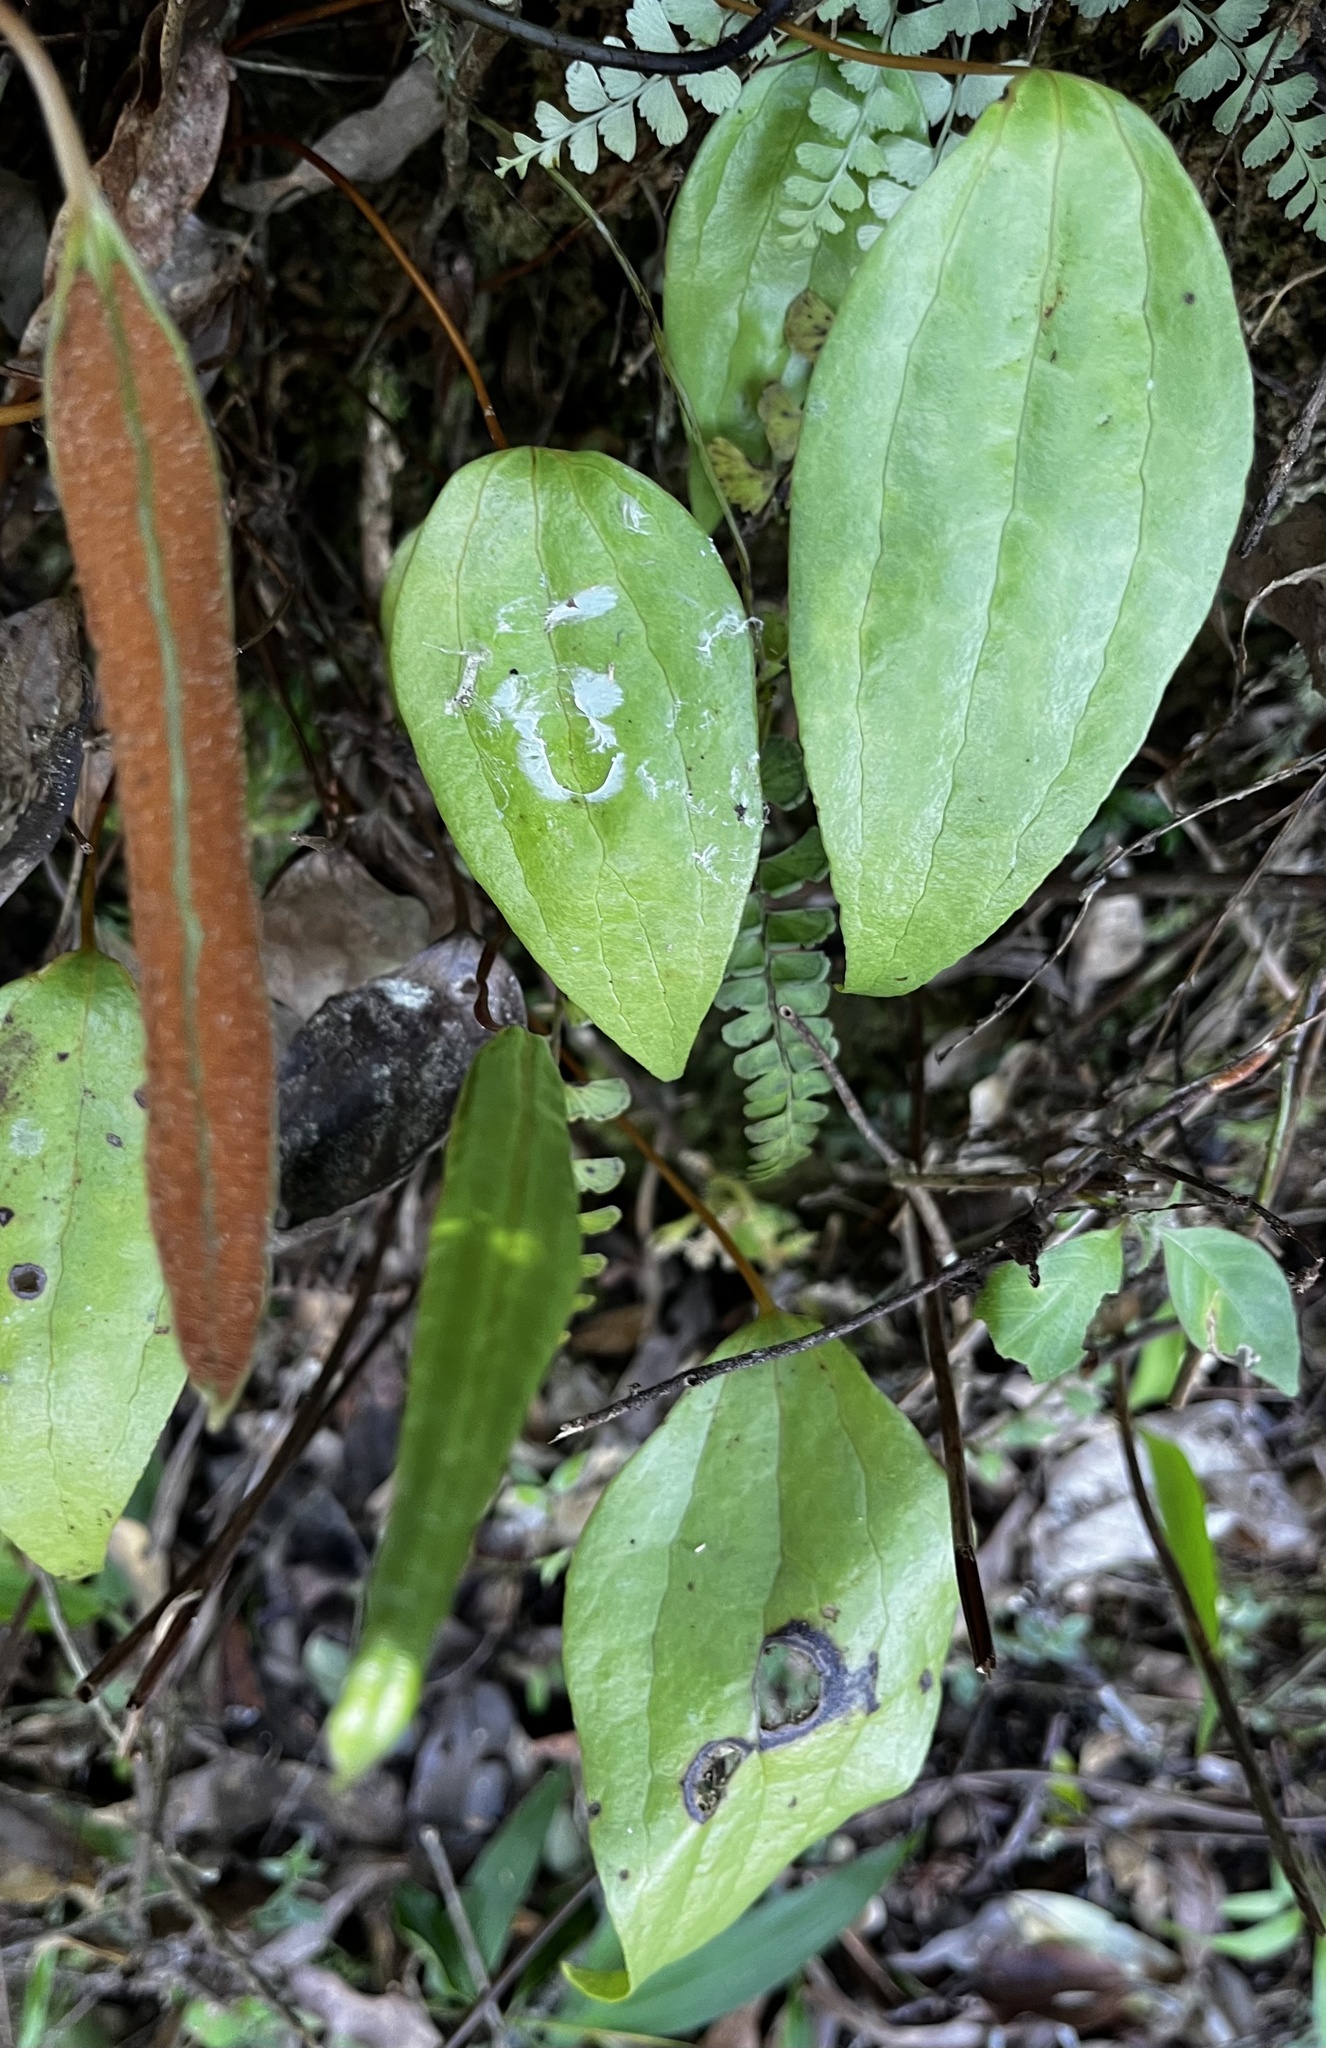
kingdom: Plantae
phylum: Tracheophyta
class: Polypodiopsida
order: Gleicheniales
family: Dipteridaceae
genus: Cheiropleuria
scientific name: Cheiropleuria integrifolia
